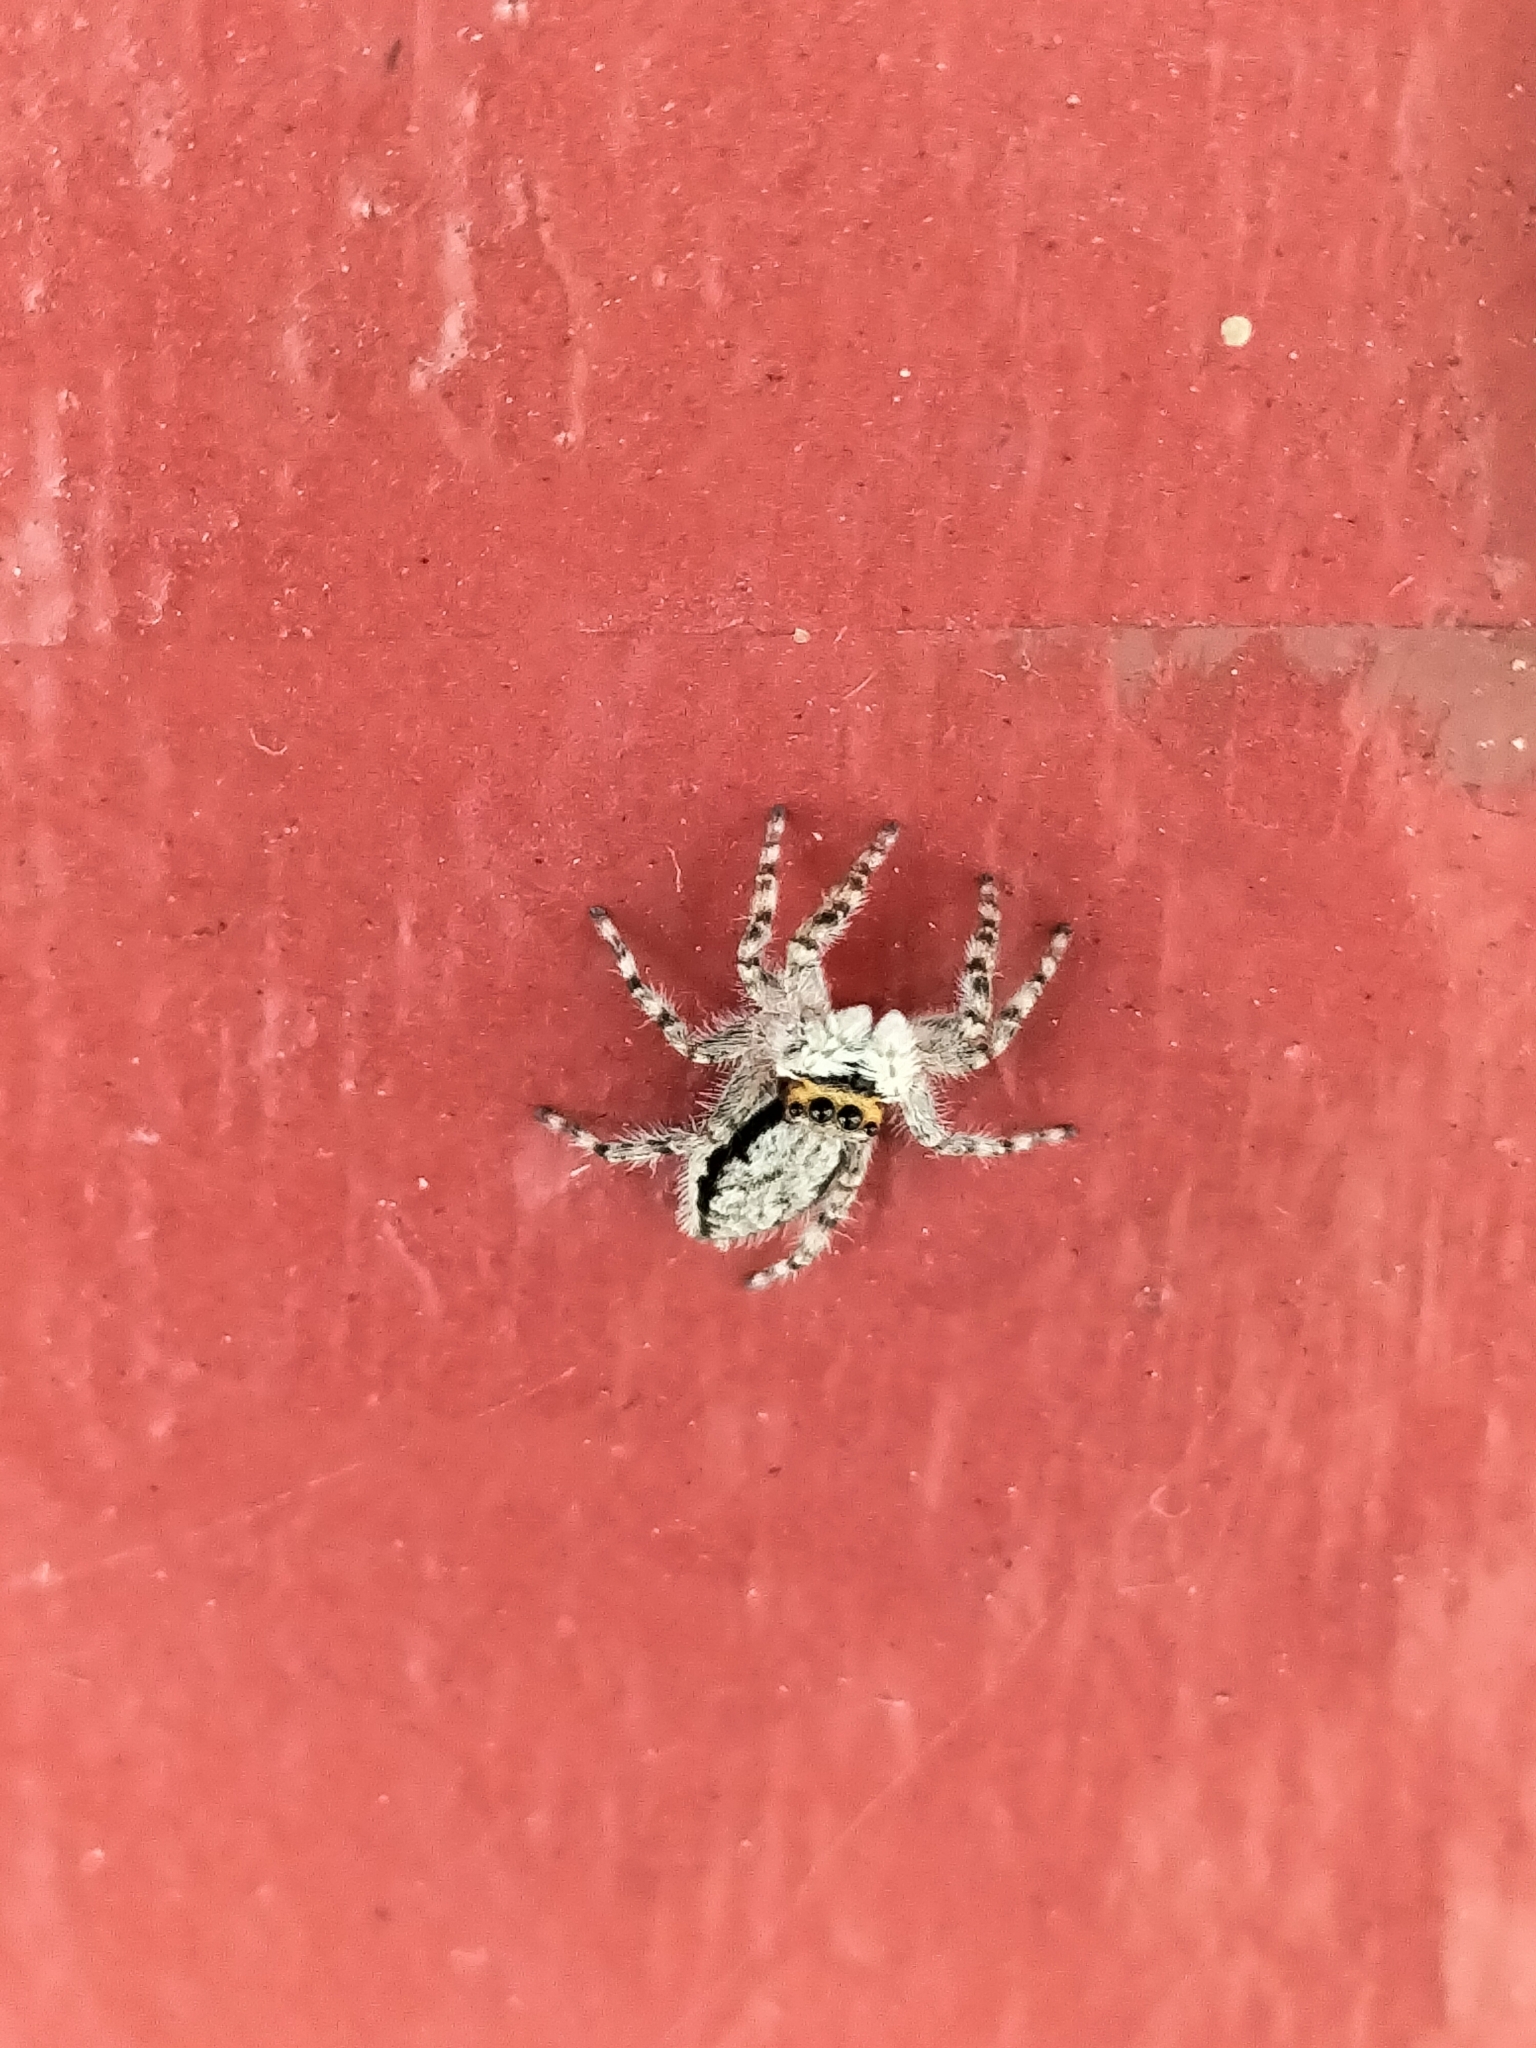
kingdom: Animalia
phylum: Arthropoda
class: Arachnida
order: Araneae
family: Salticidae
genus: Menemerus
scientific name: Menemerus bivittatus
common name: Gray wall jumper
